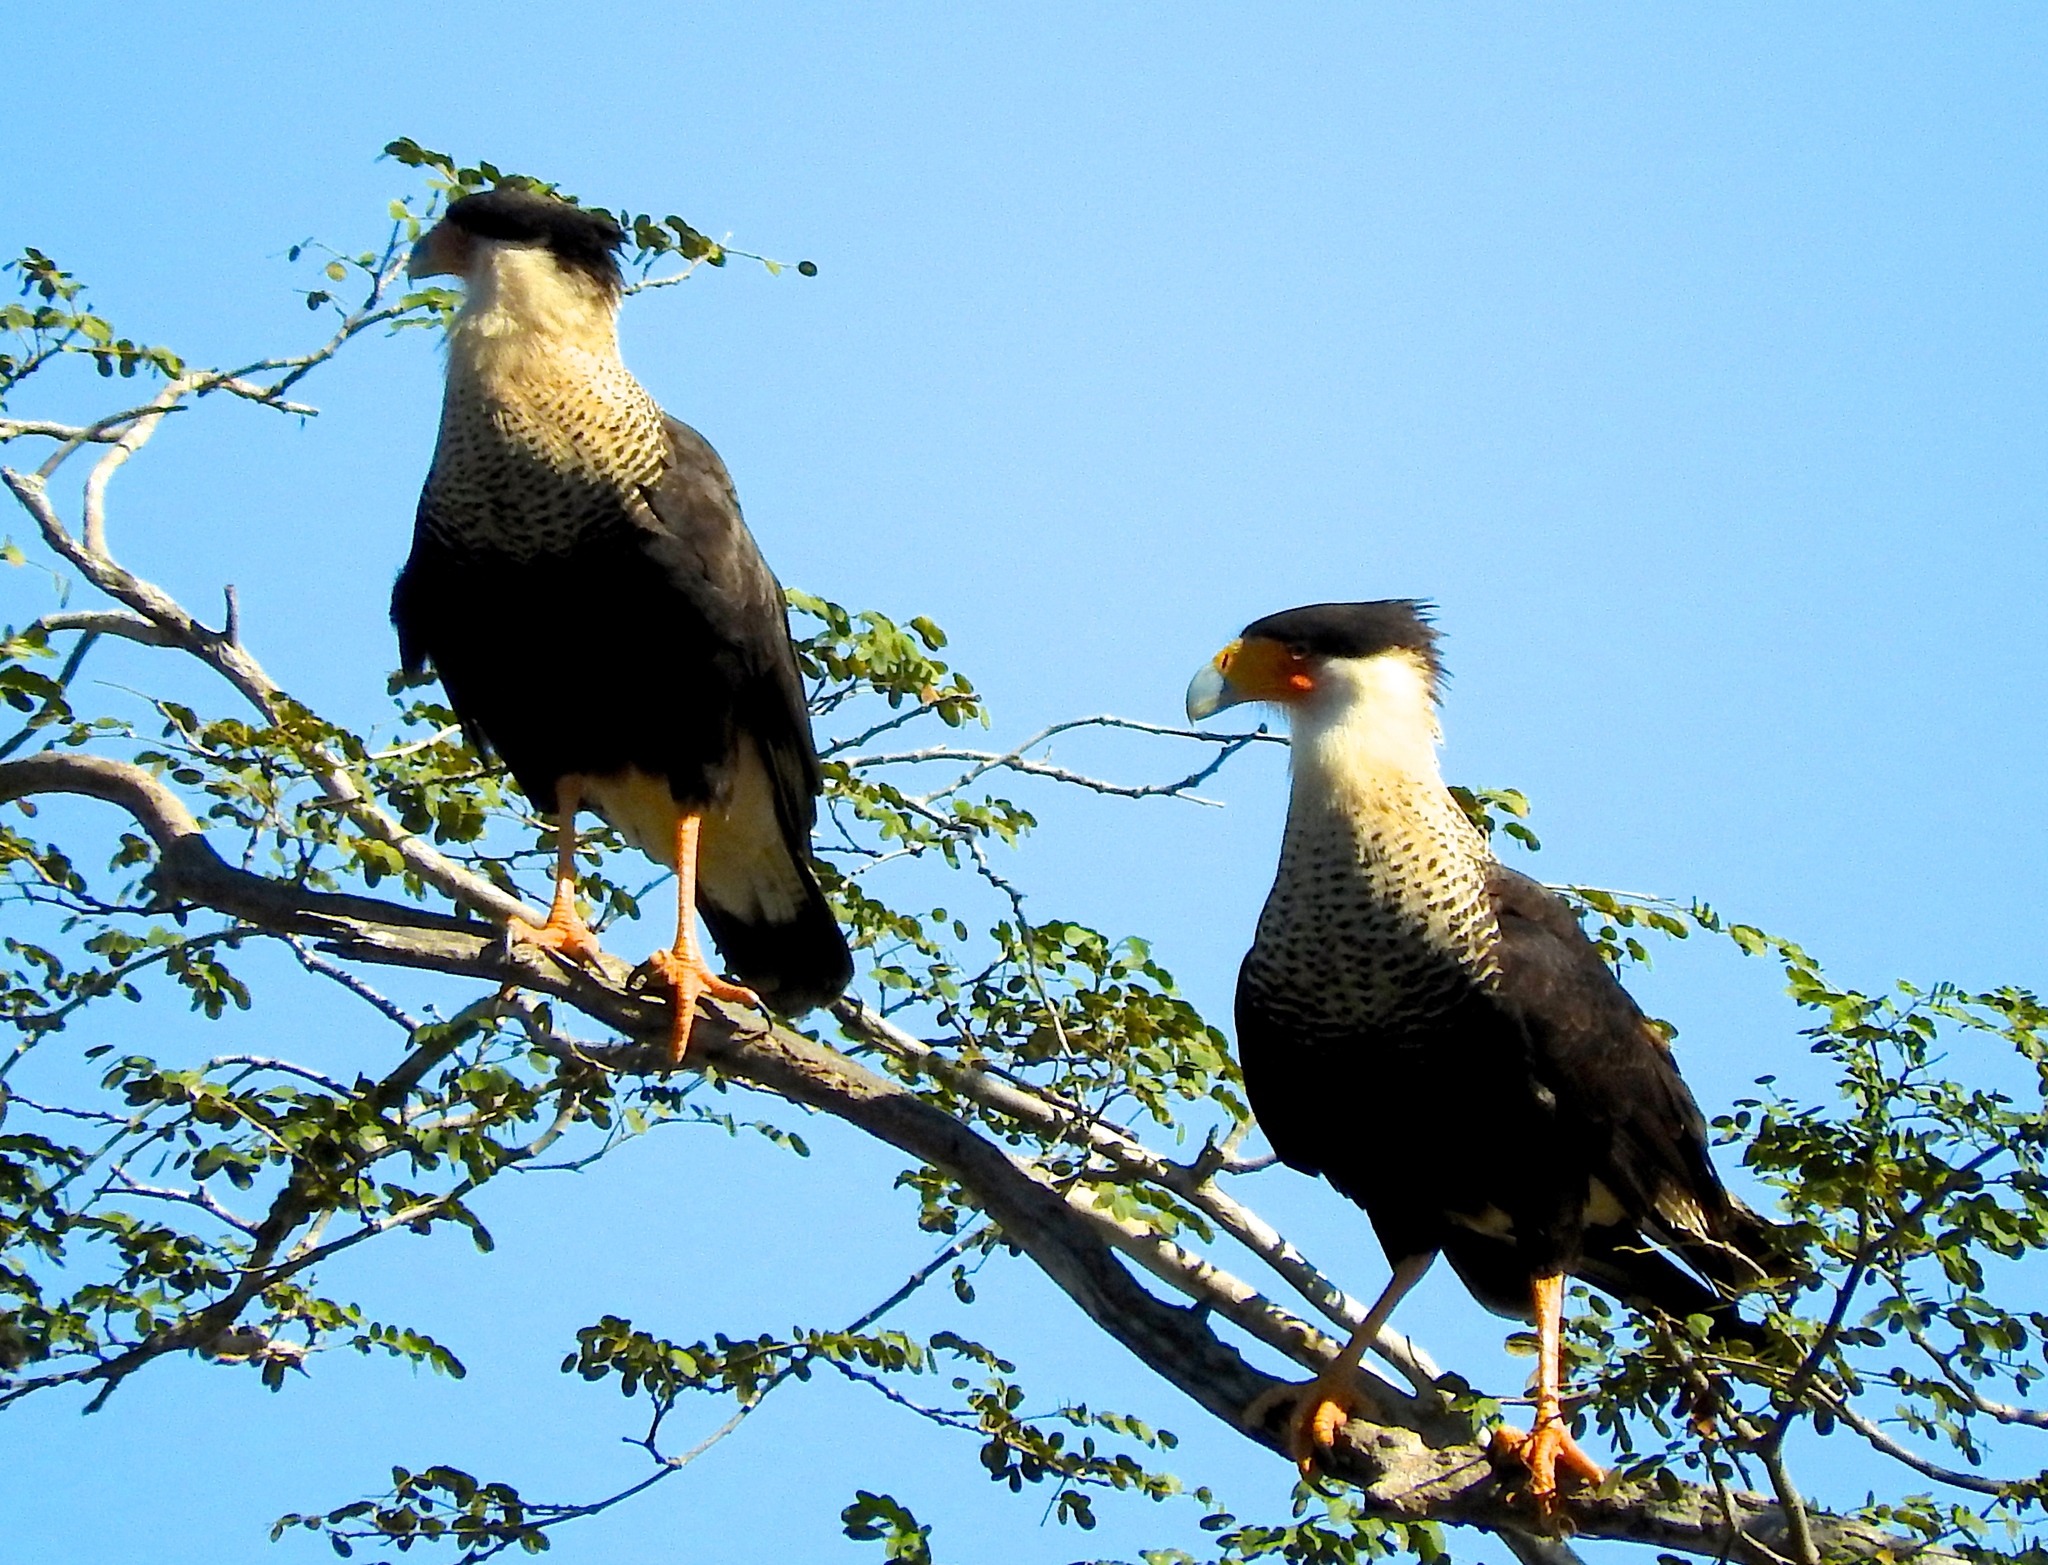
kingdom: Animalia
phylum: Chordata
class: Aves
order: Falconiformes
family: Falconidae
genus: Caracara
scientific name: Caracara plancus
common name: Southern caracara
